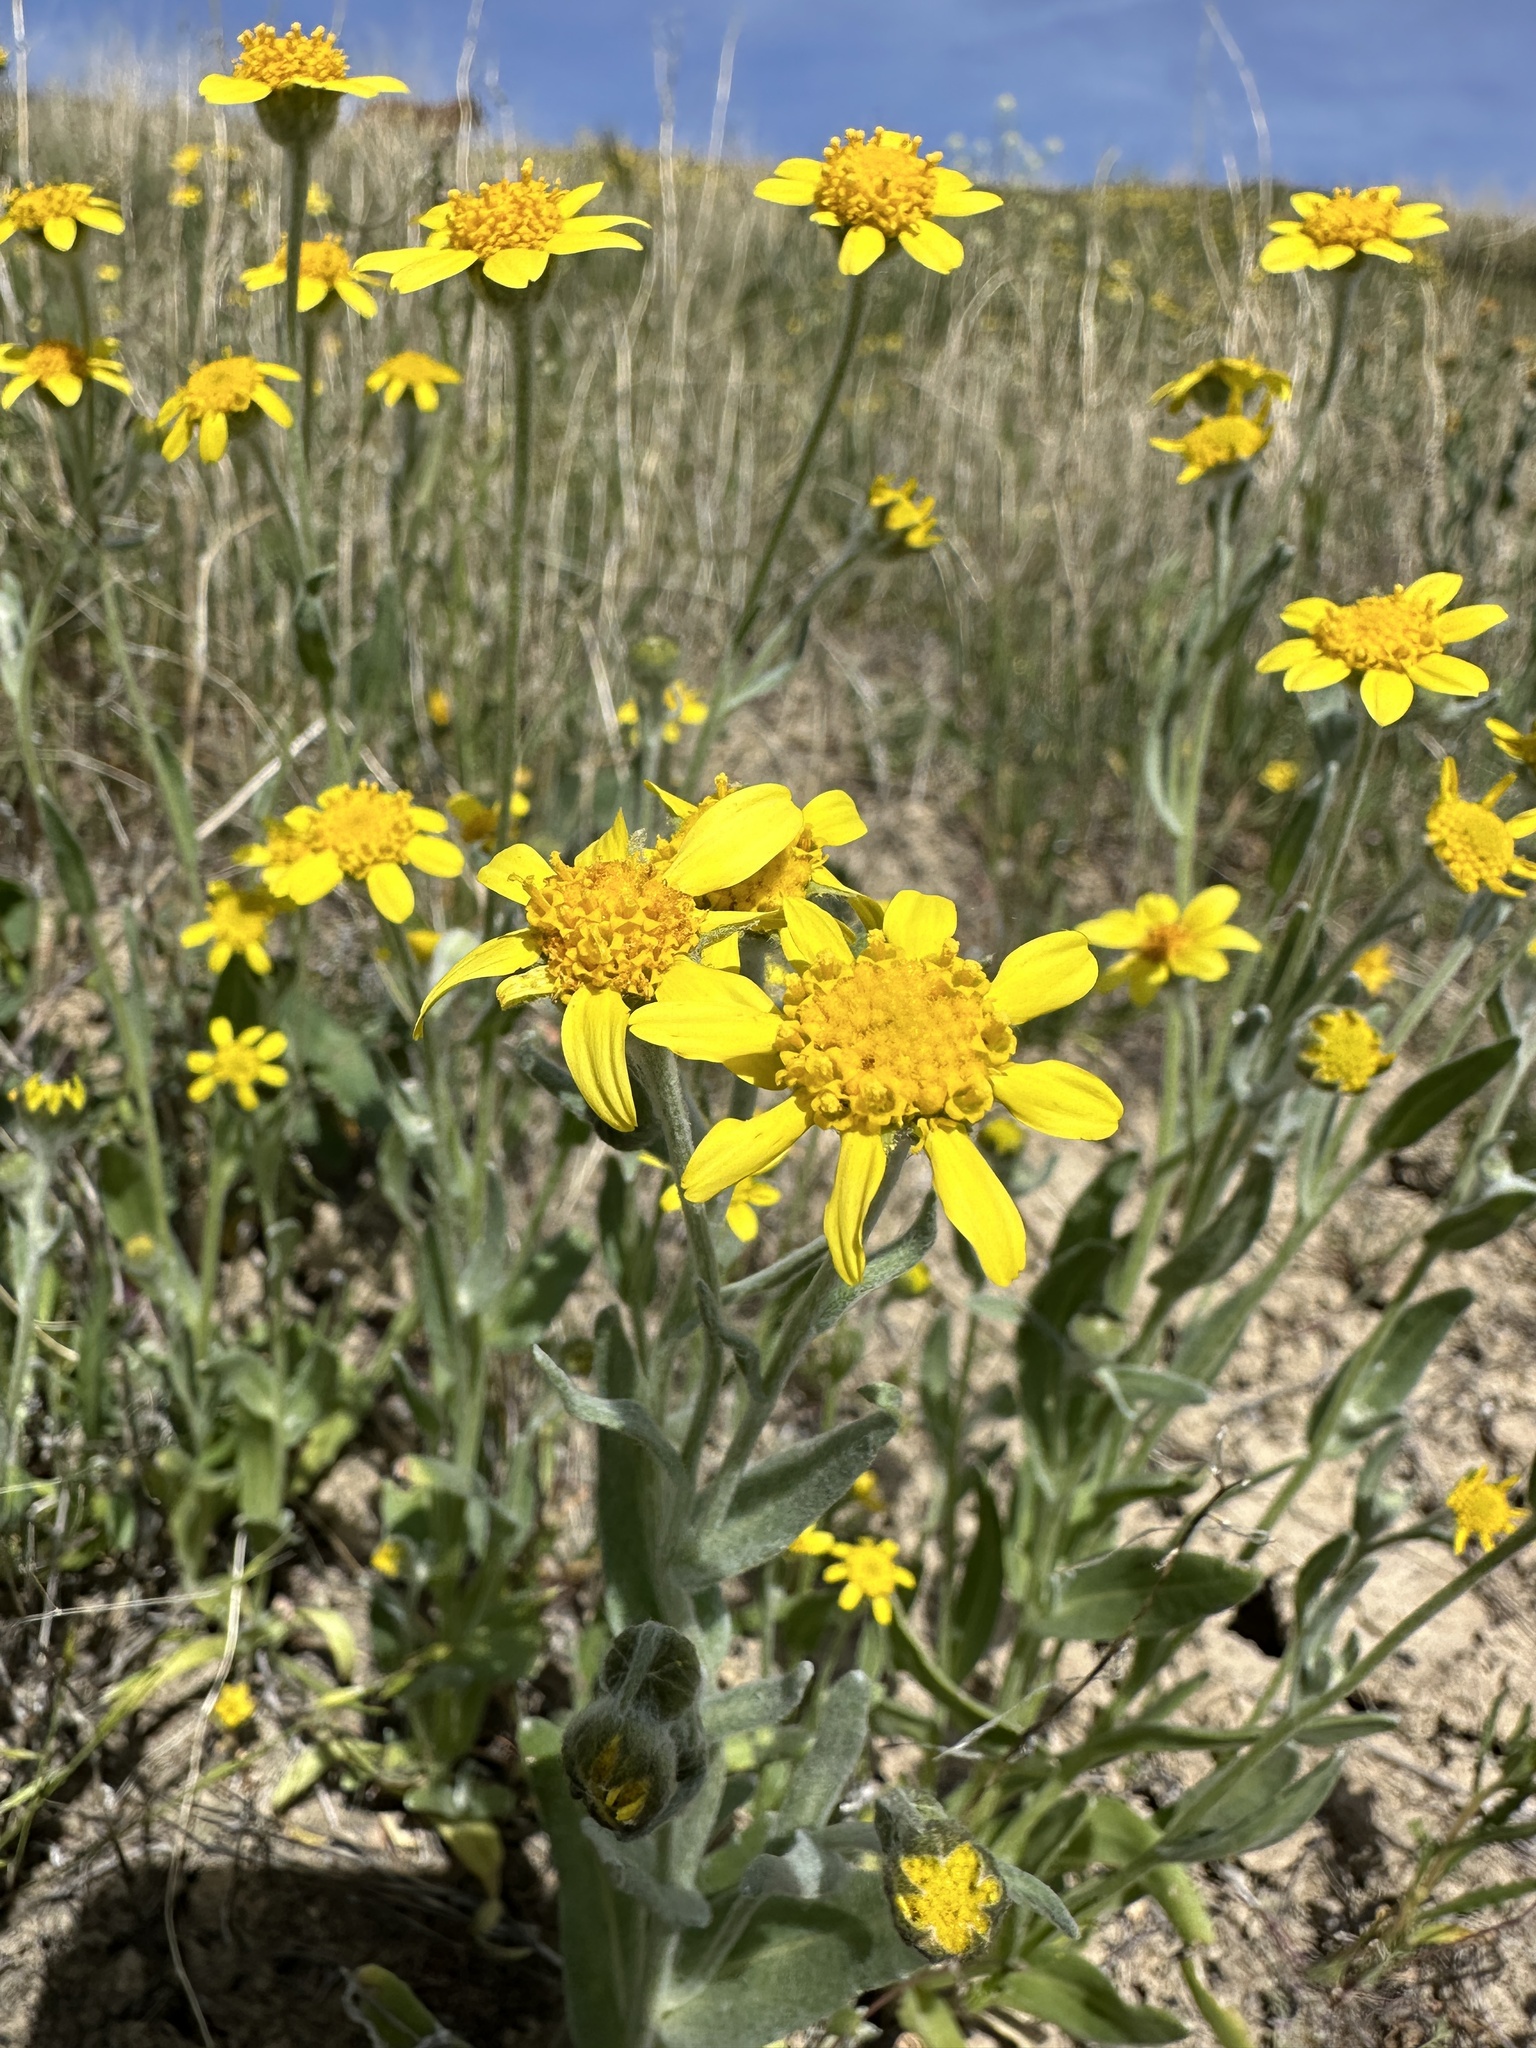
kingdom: Plantae
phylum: Tracheophyta
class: Magnoliopsida
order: Asterales
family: Asteraceae
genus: Monolopia
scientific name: Monolopia stricta
